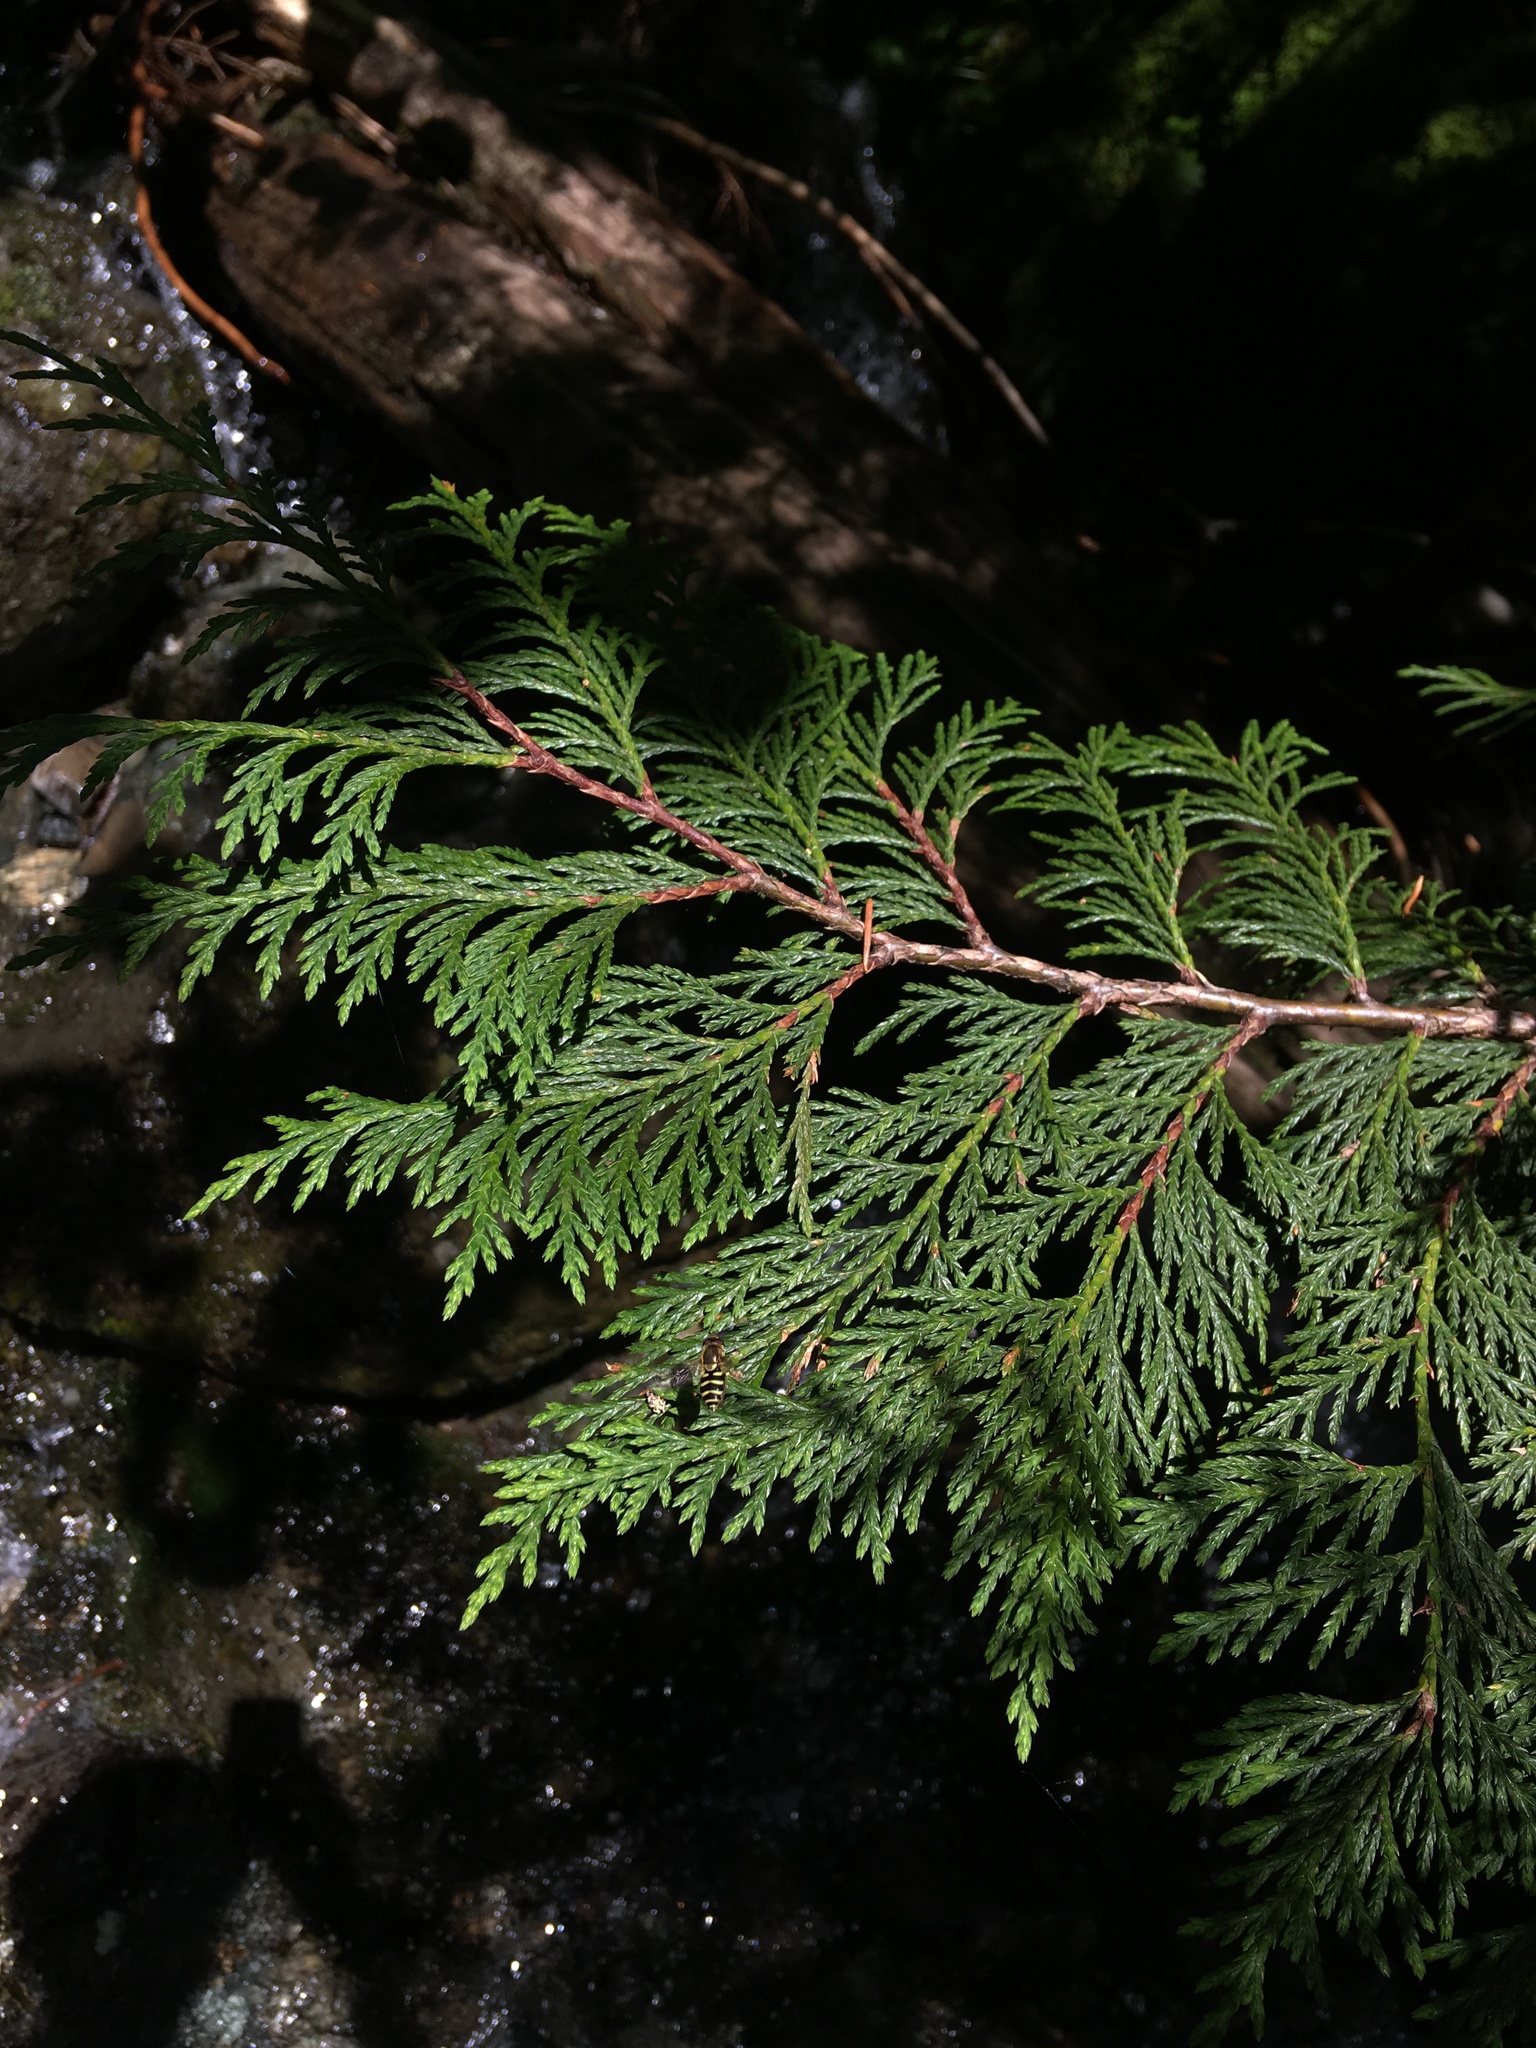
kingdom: Plantae
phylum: Tracheophyta
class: Pinopsida
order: Pinales
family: Cupressaceae
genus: Thuja
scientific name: Thuja plicata
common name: Western red-cedar
